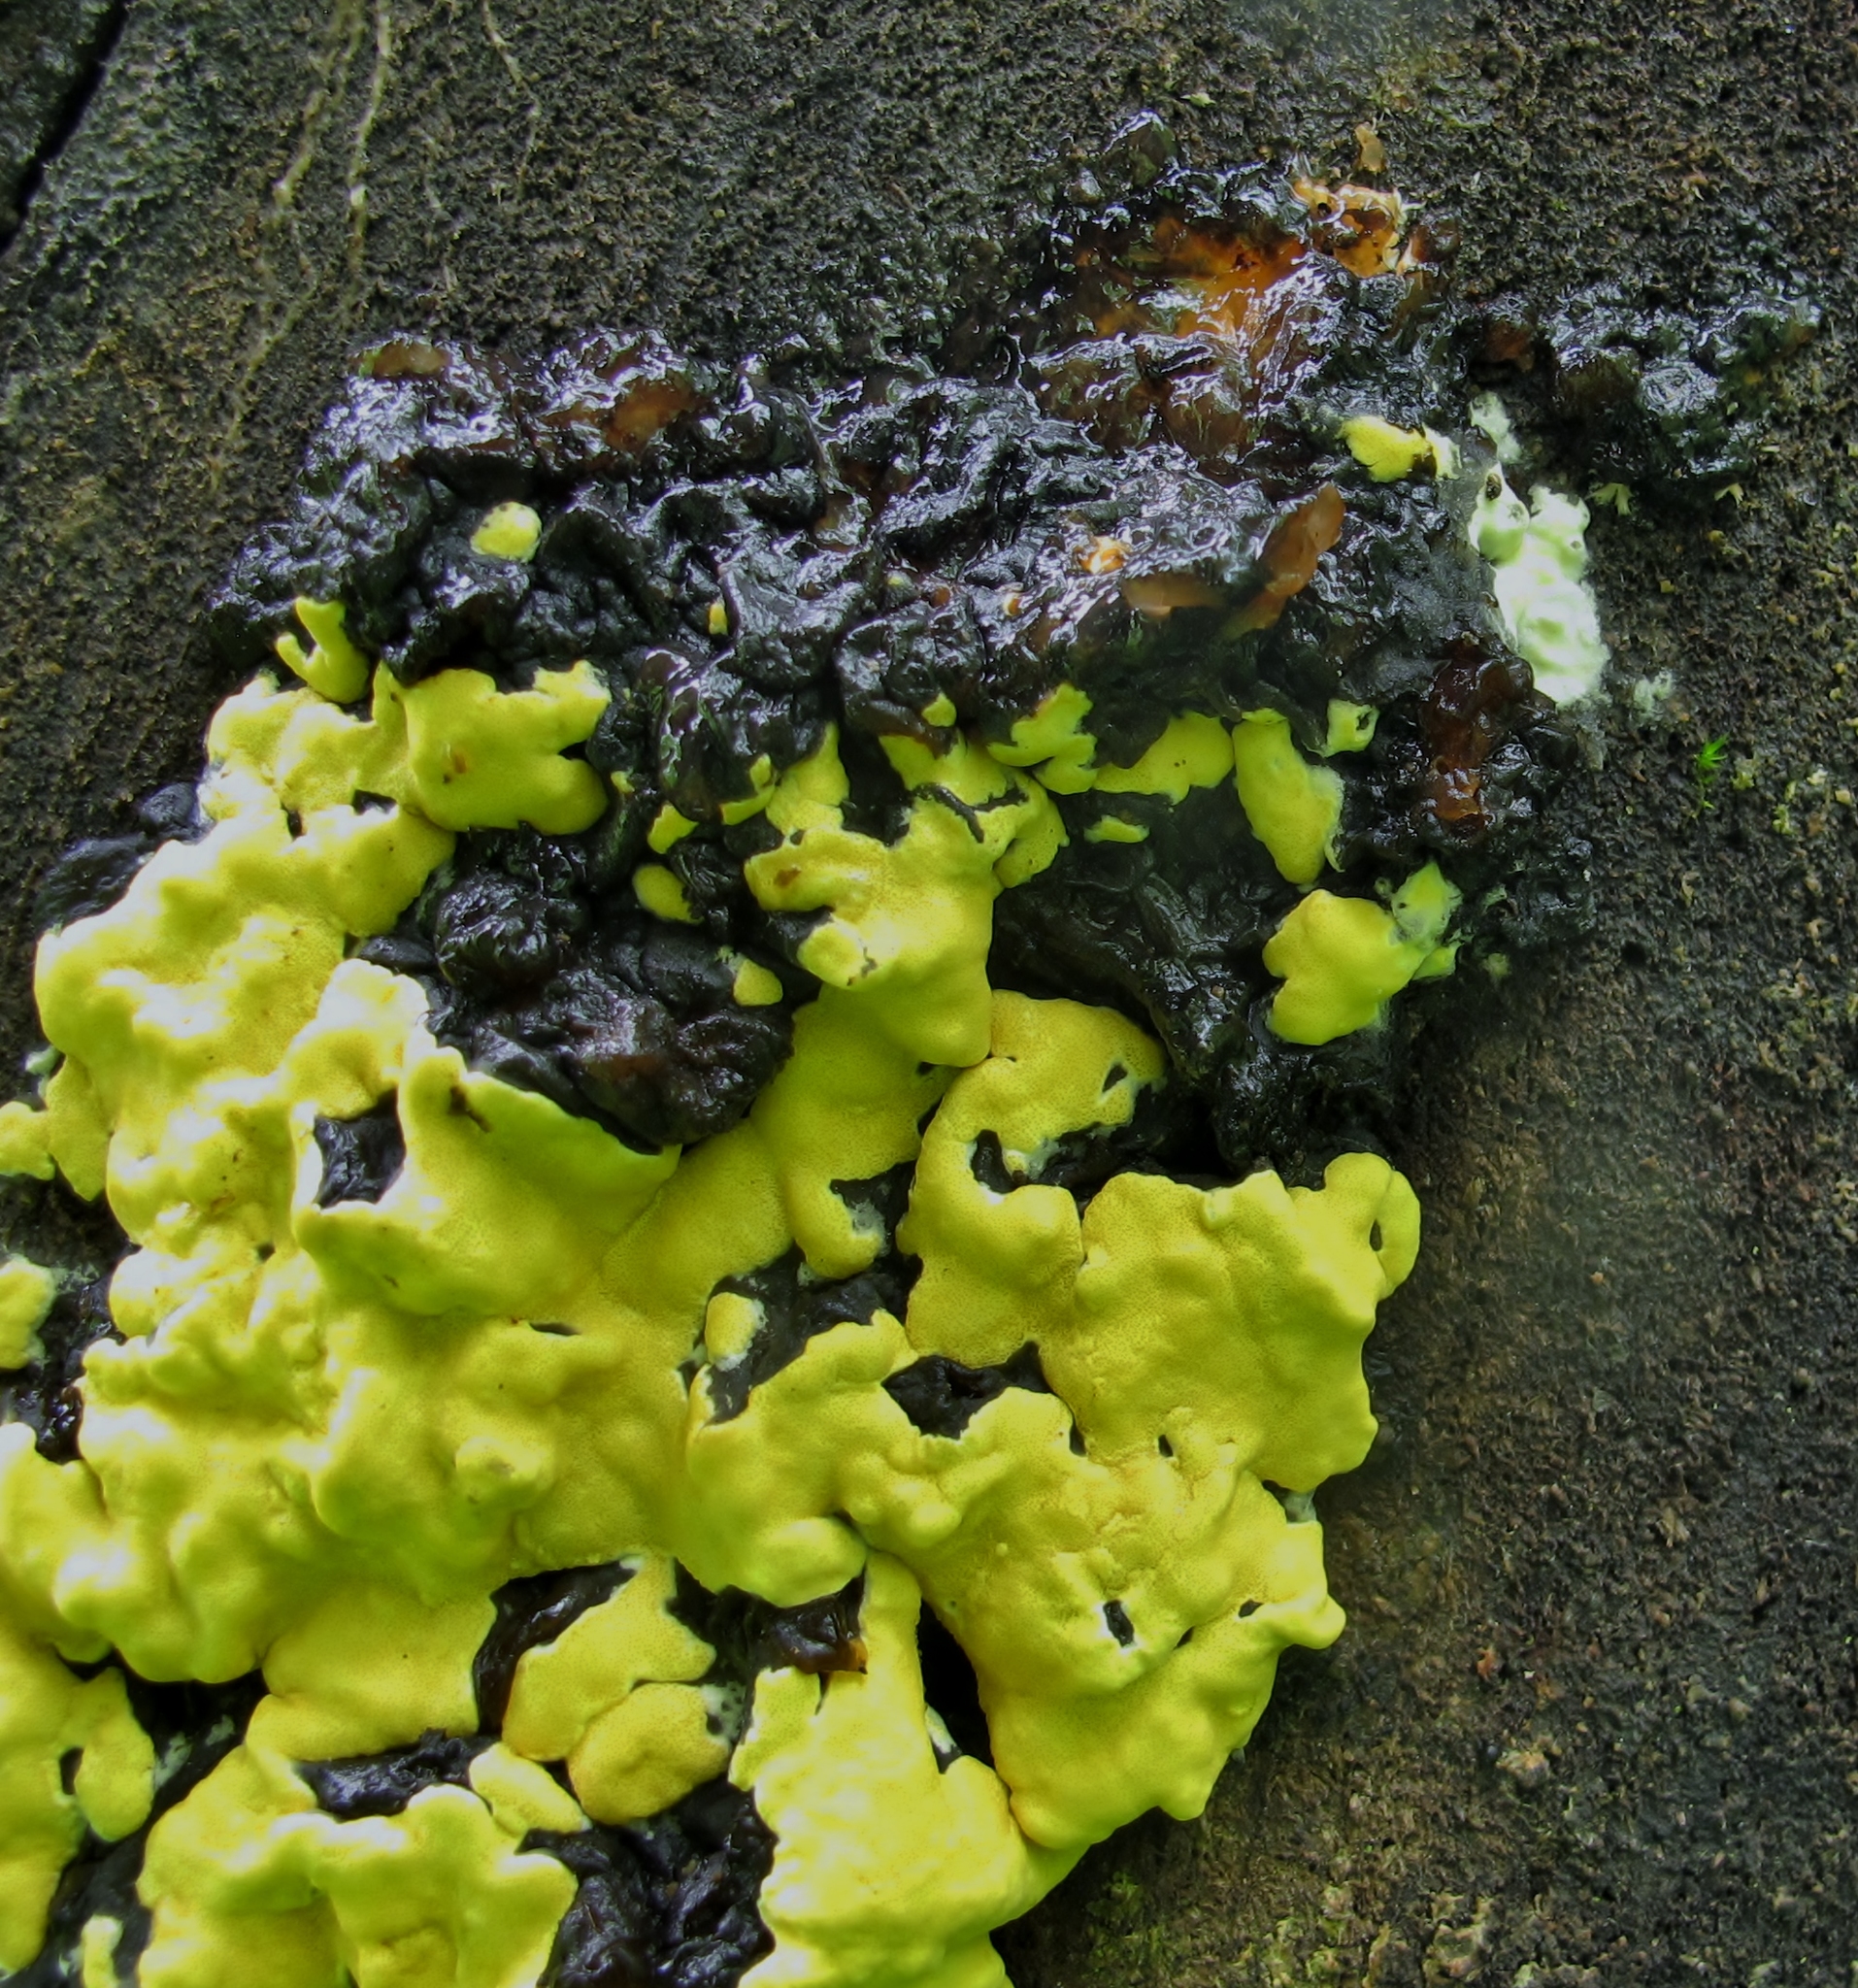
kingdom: Fungi
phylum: Ascomycota
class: Sordariomycetes
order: Hypocreales
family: Hypocreaceae
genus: Trichoderma
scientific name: Trichoderma sulphureum
